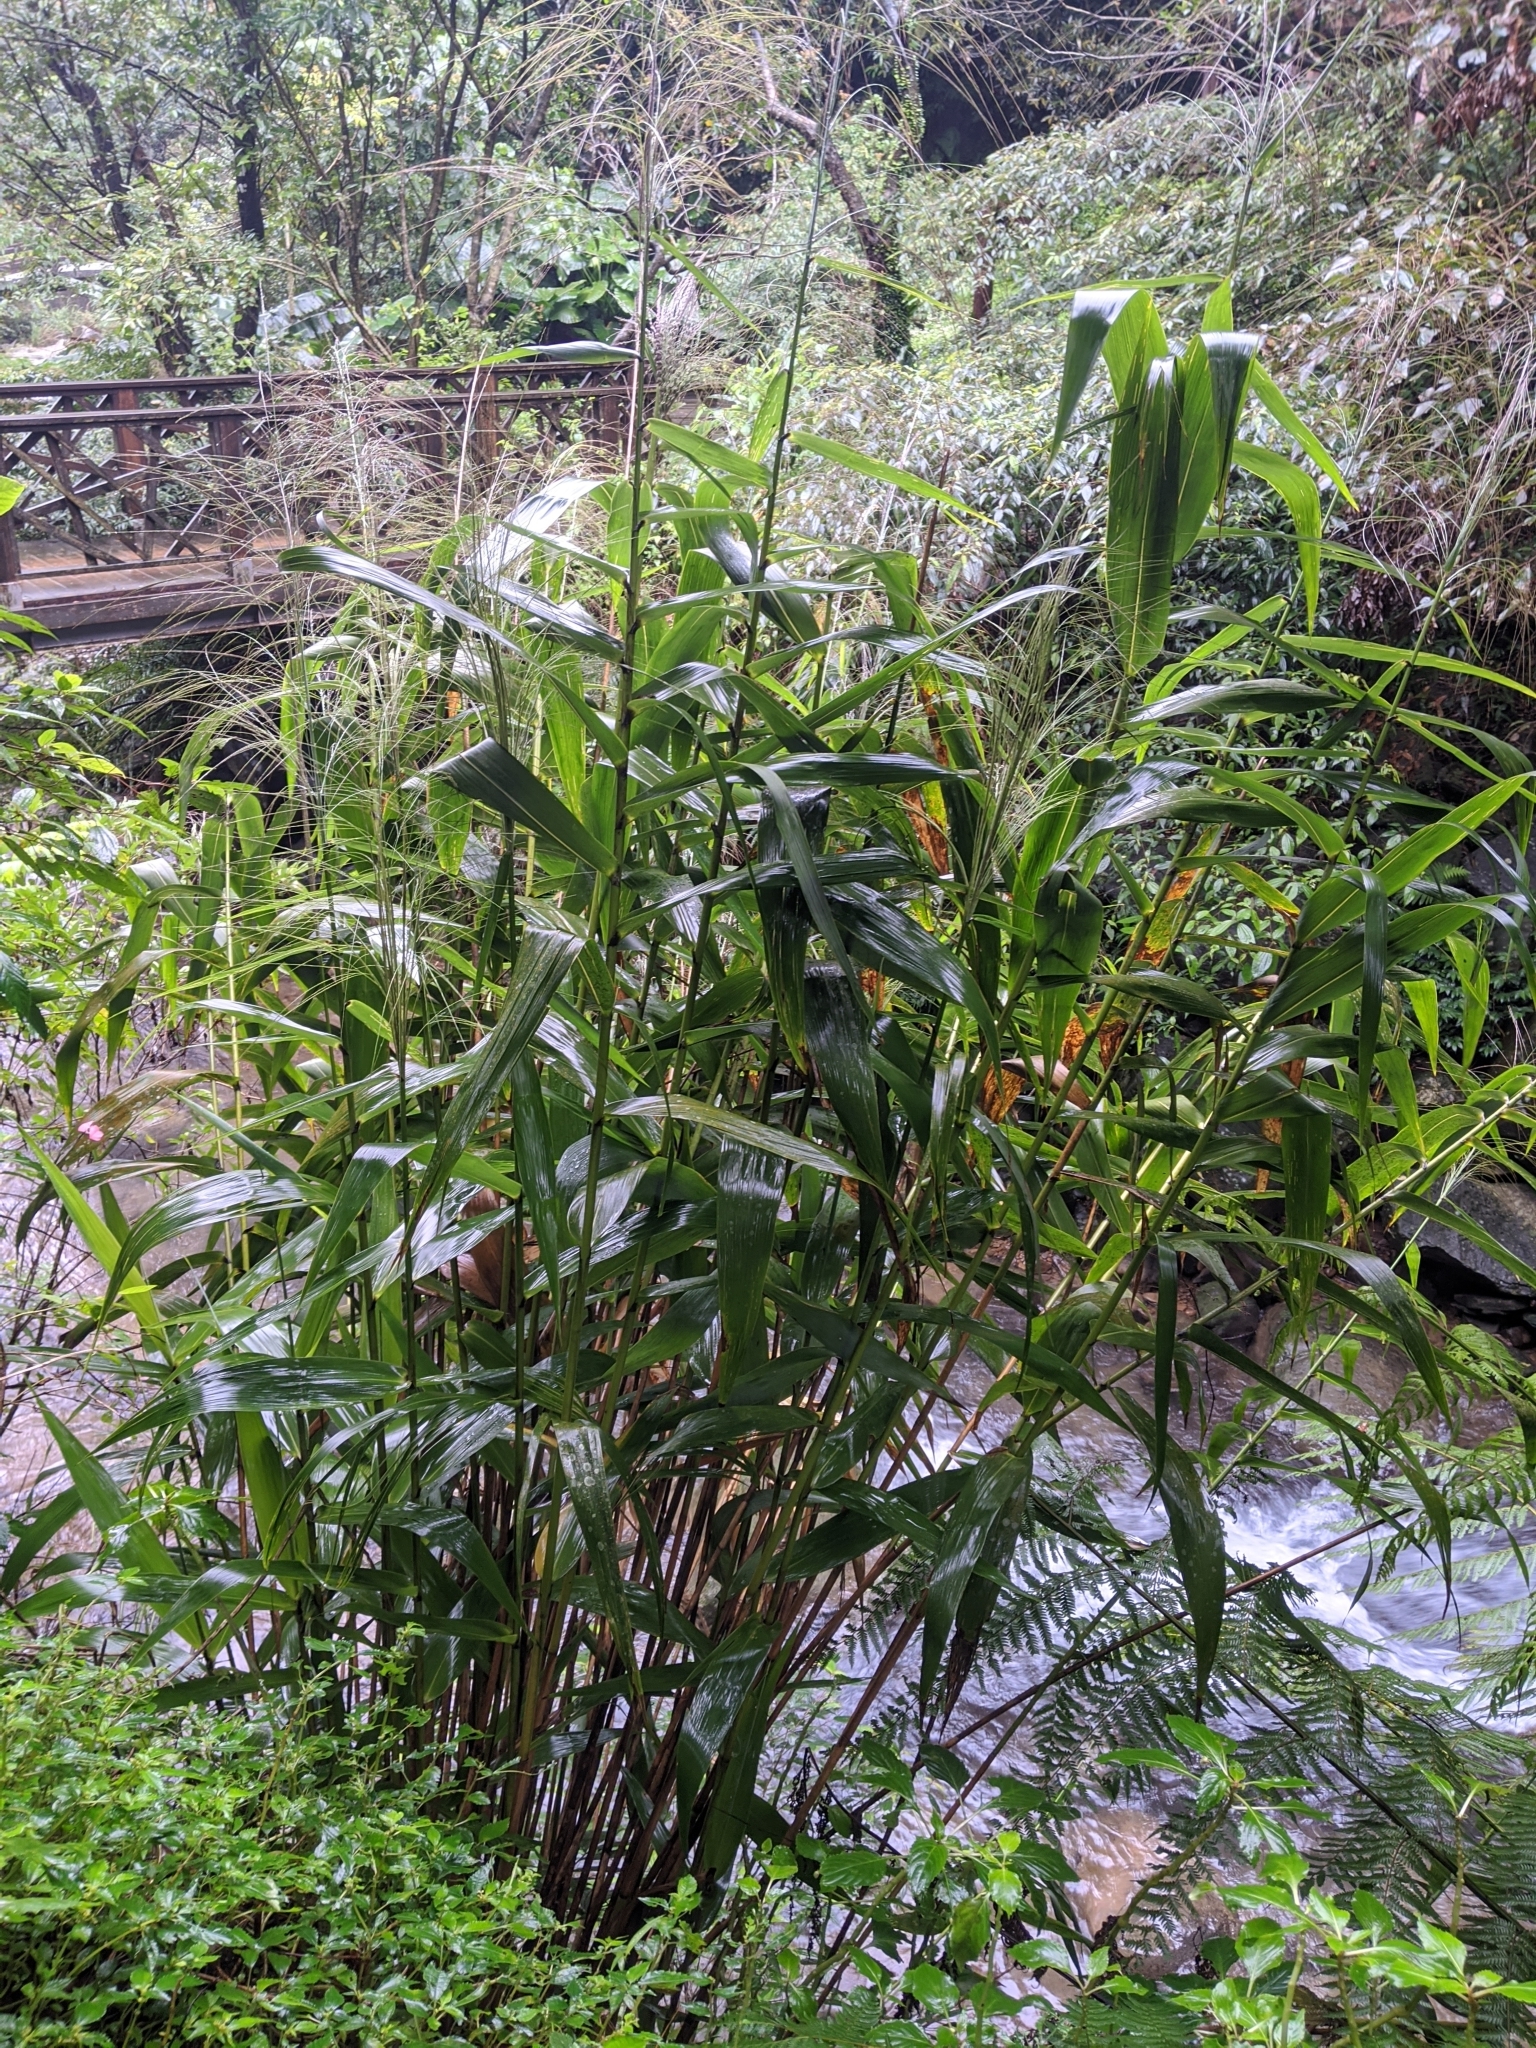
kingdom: Plantae
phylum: Tracheophyta
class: Liliopsida
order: Poales
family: Poaceae
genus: Thysanolaena
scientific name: Thysanolaena latifolia
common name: Tiger grass
